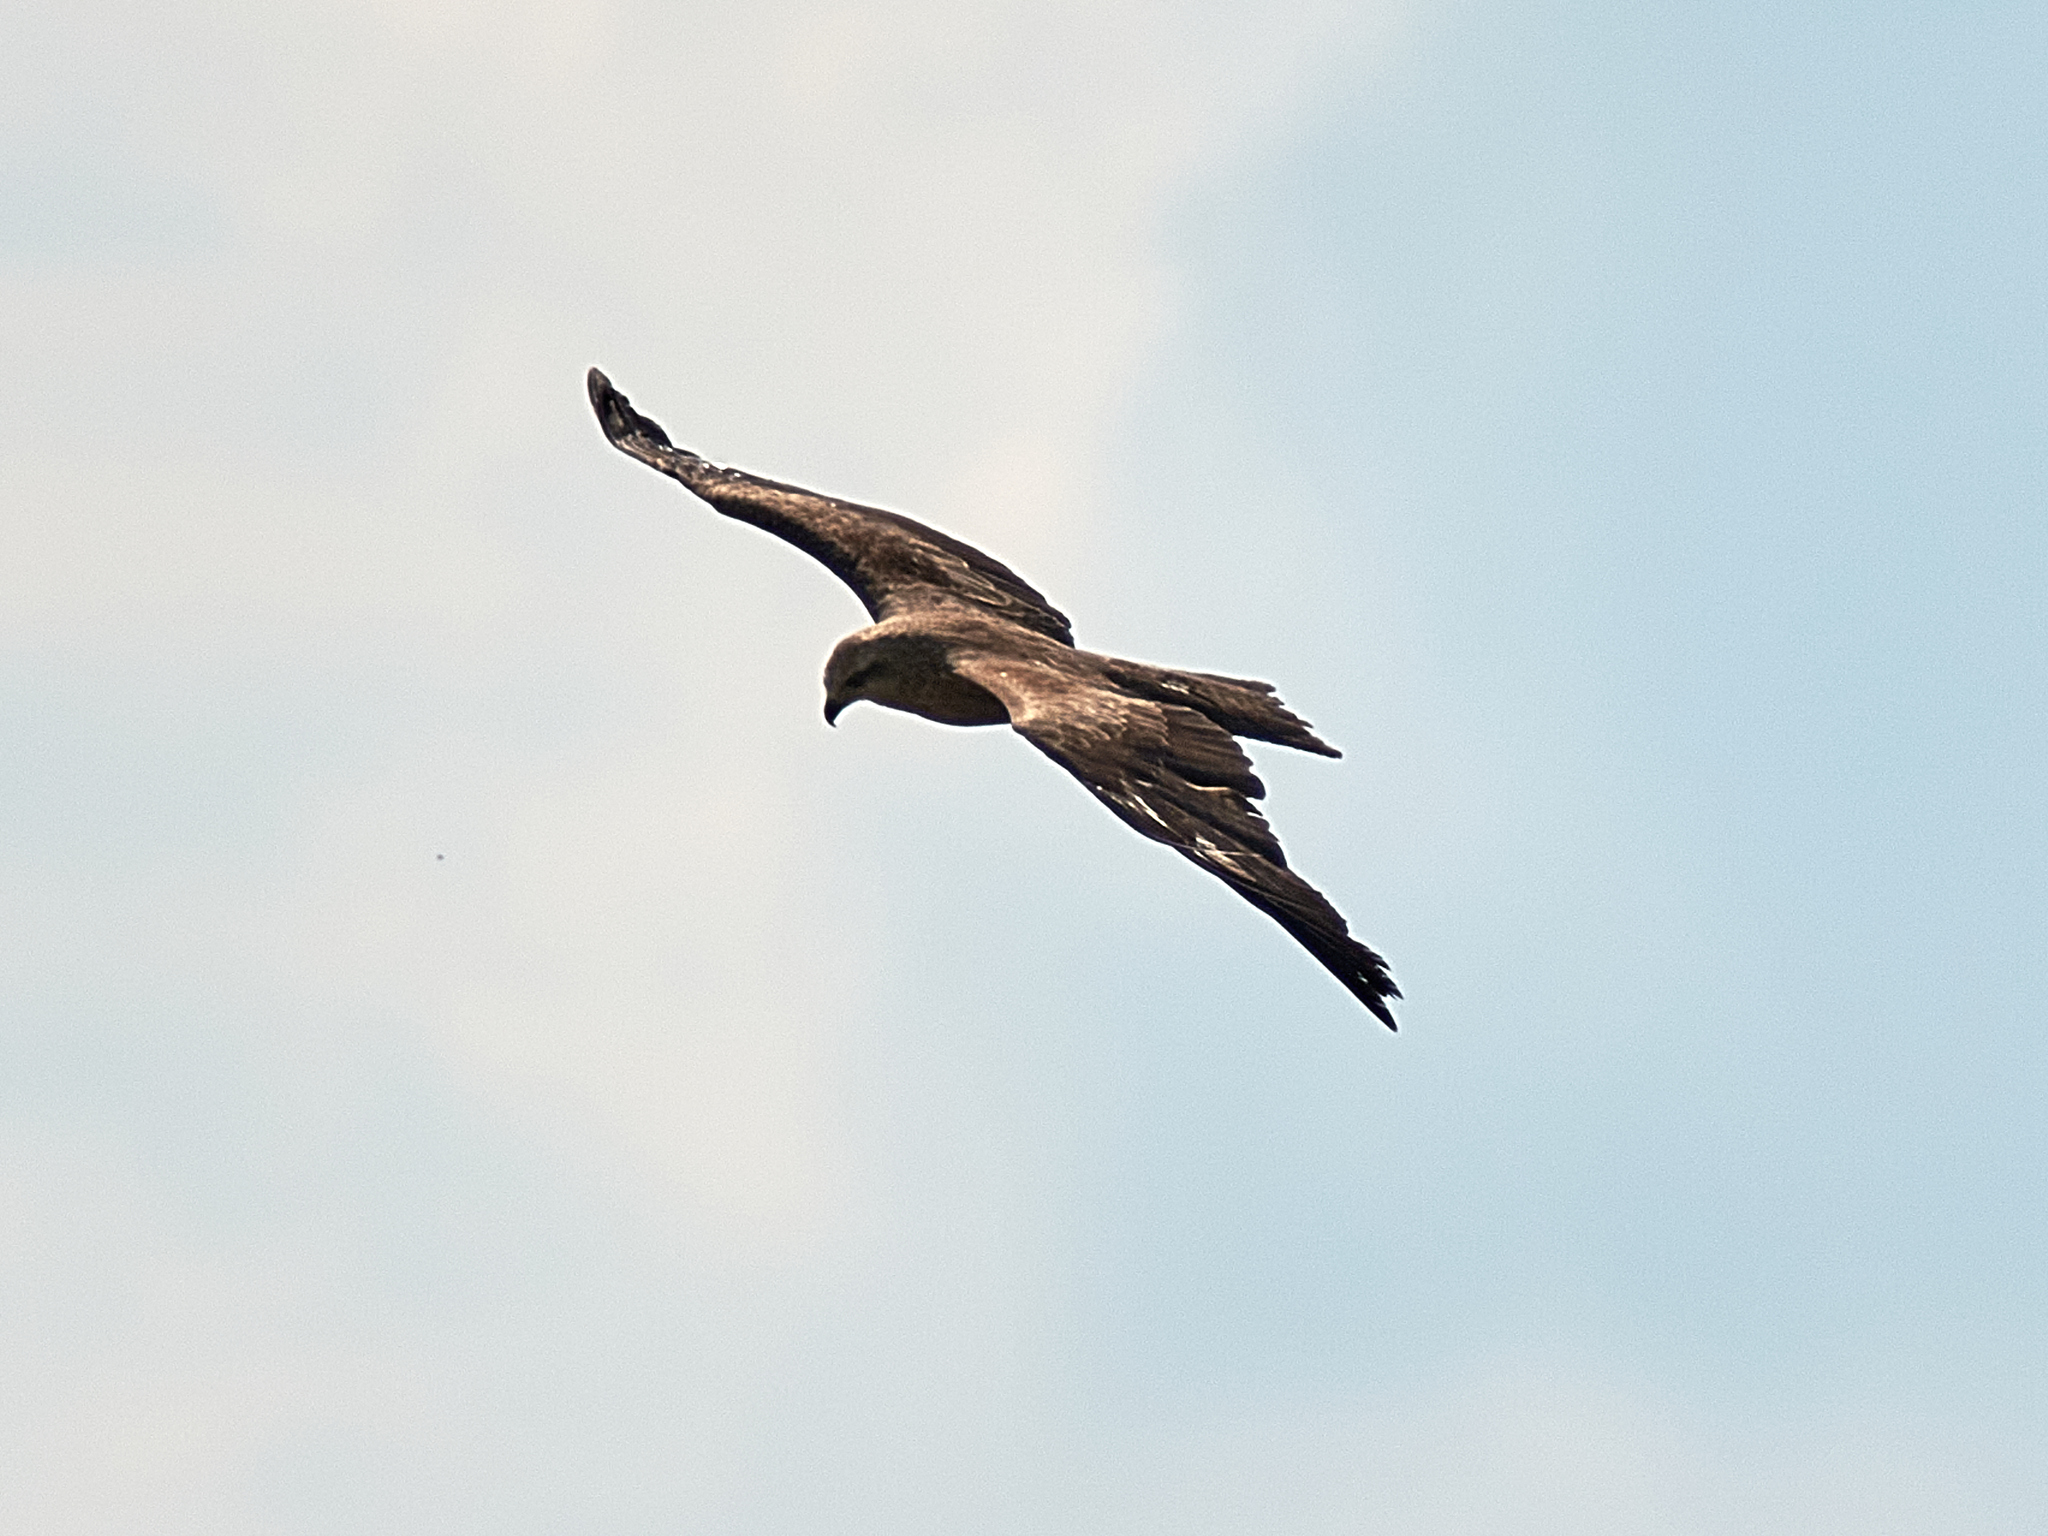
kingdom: Animalia
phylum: Chordata
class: Aves
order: Accipitriformes
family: Accipitridae
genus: Milvus
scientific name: Milvus migrans
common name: Black kite
